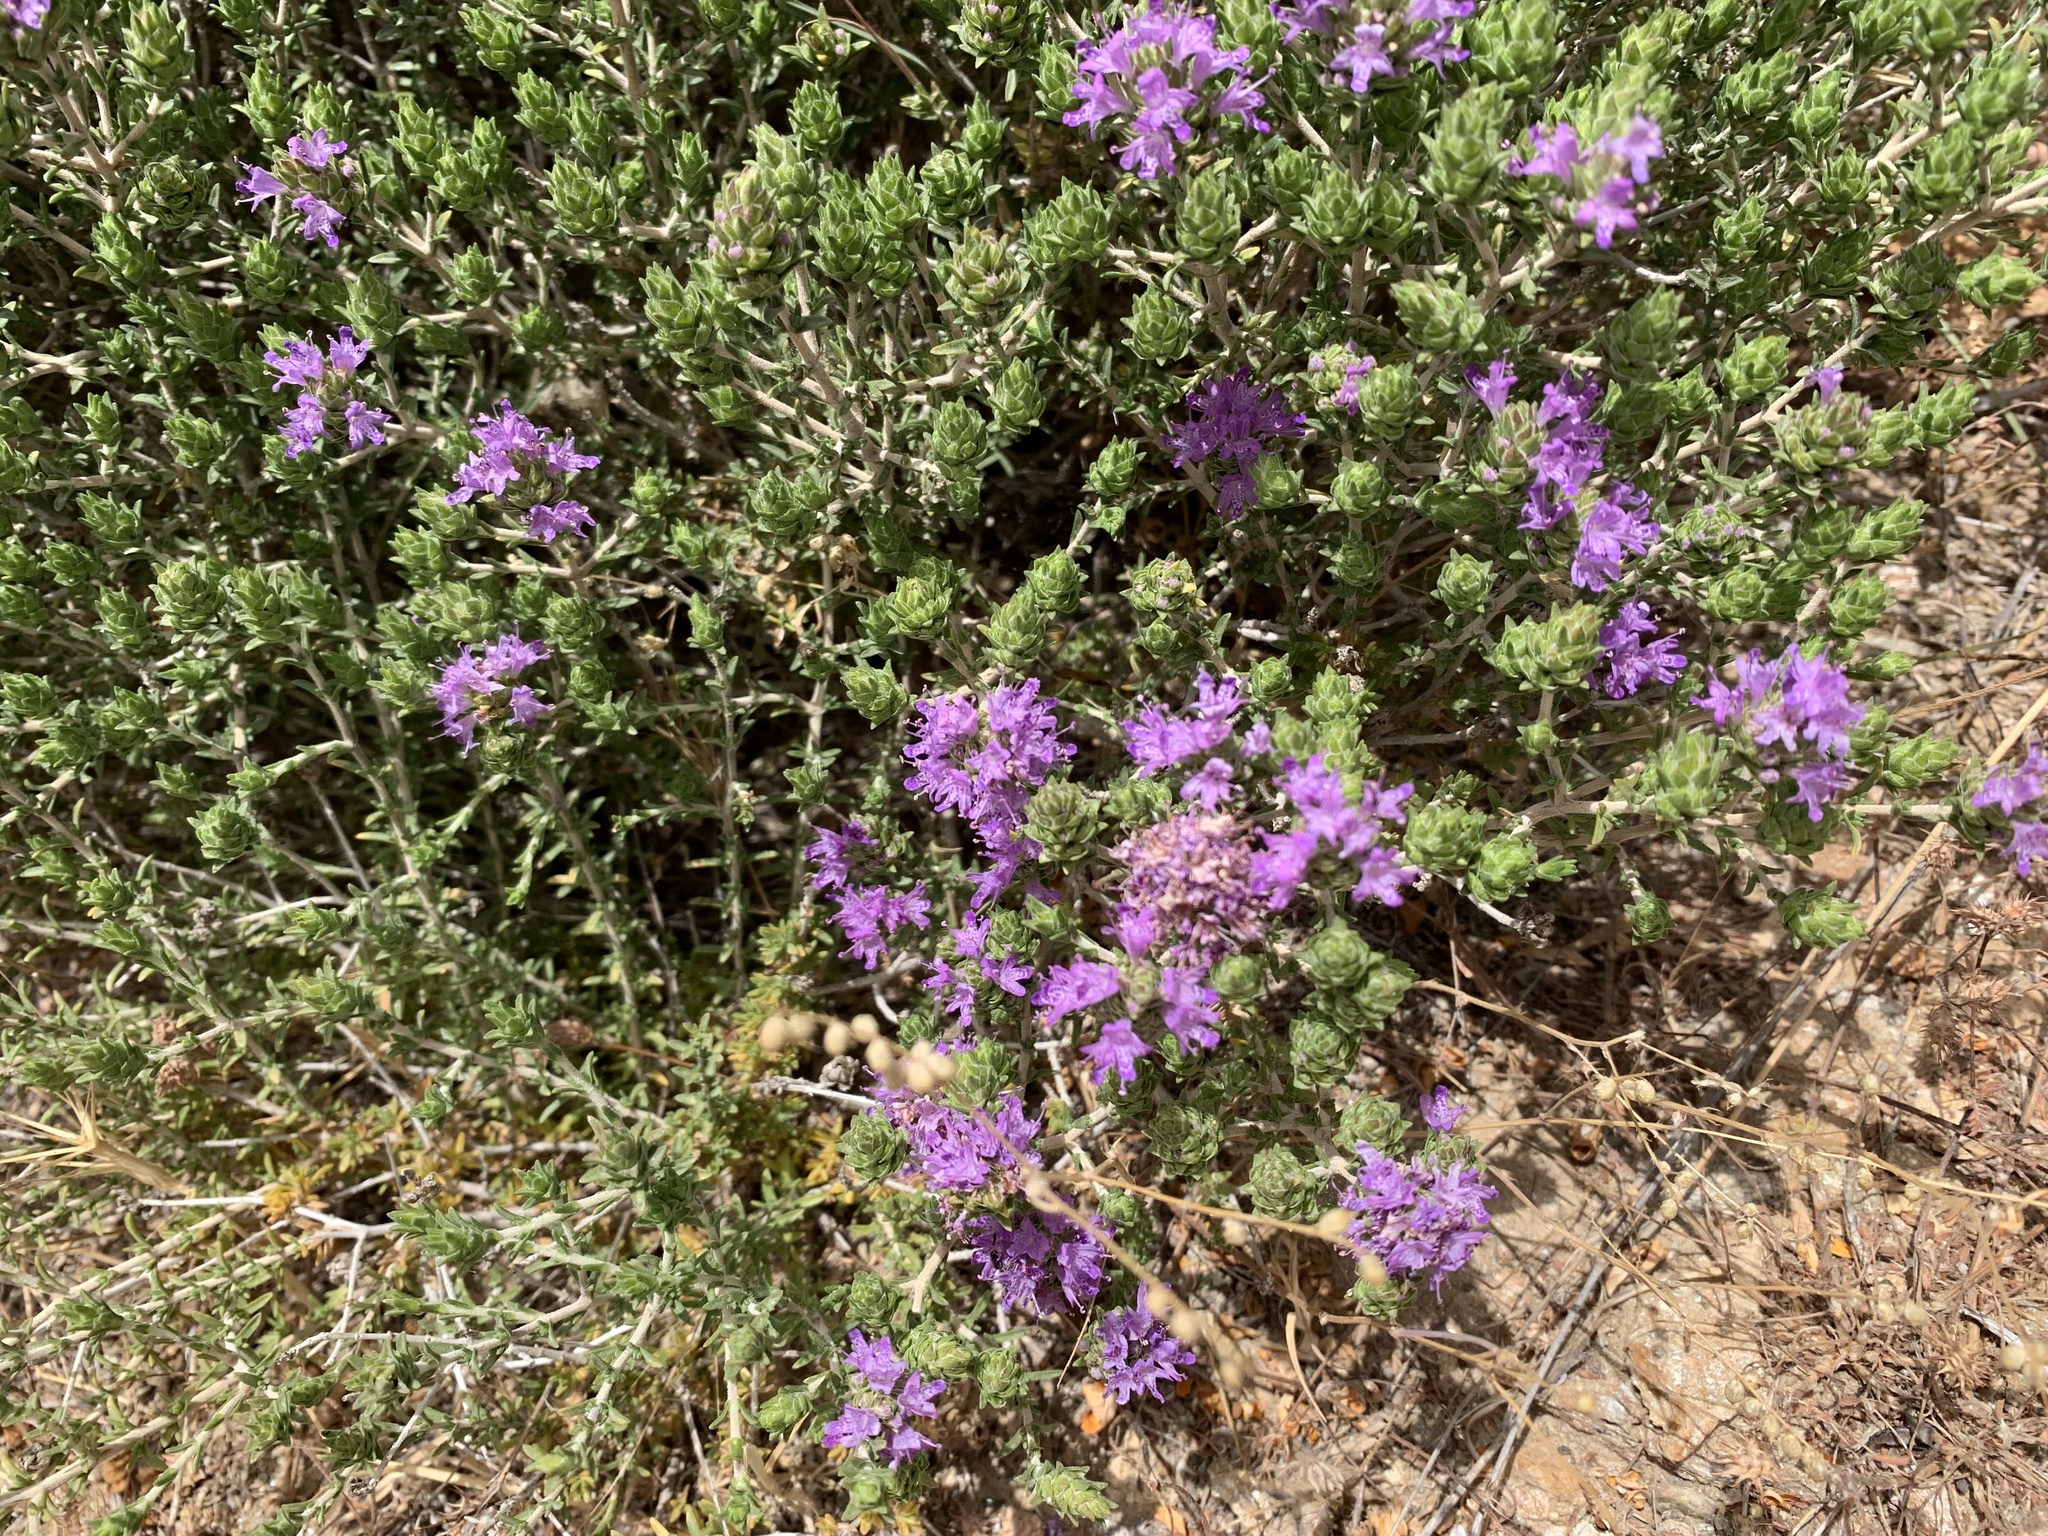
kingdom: Plantae
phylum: Tracheophyta
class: Magnoliopsida
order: Lamiales
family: Lamiaceae
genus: Thymbra
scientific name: Thymbra capitata
